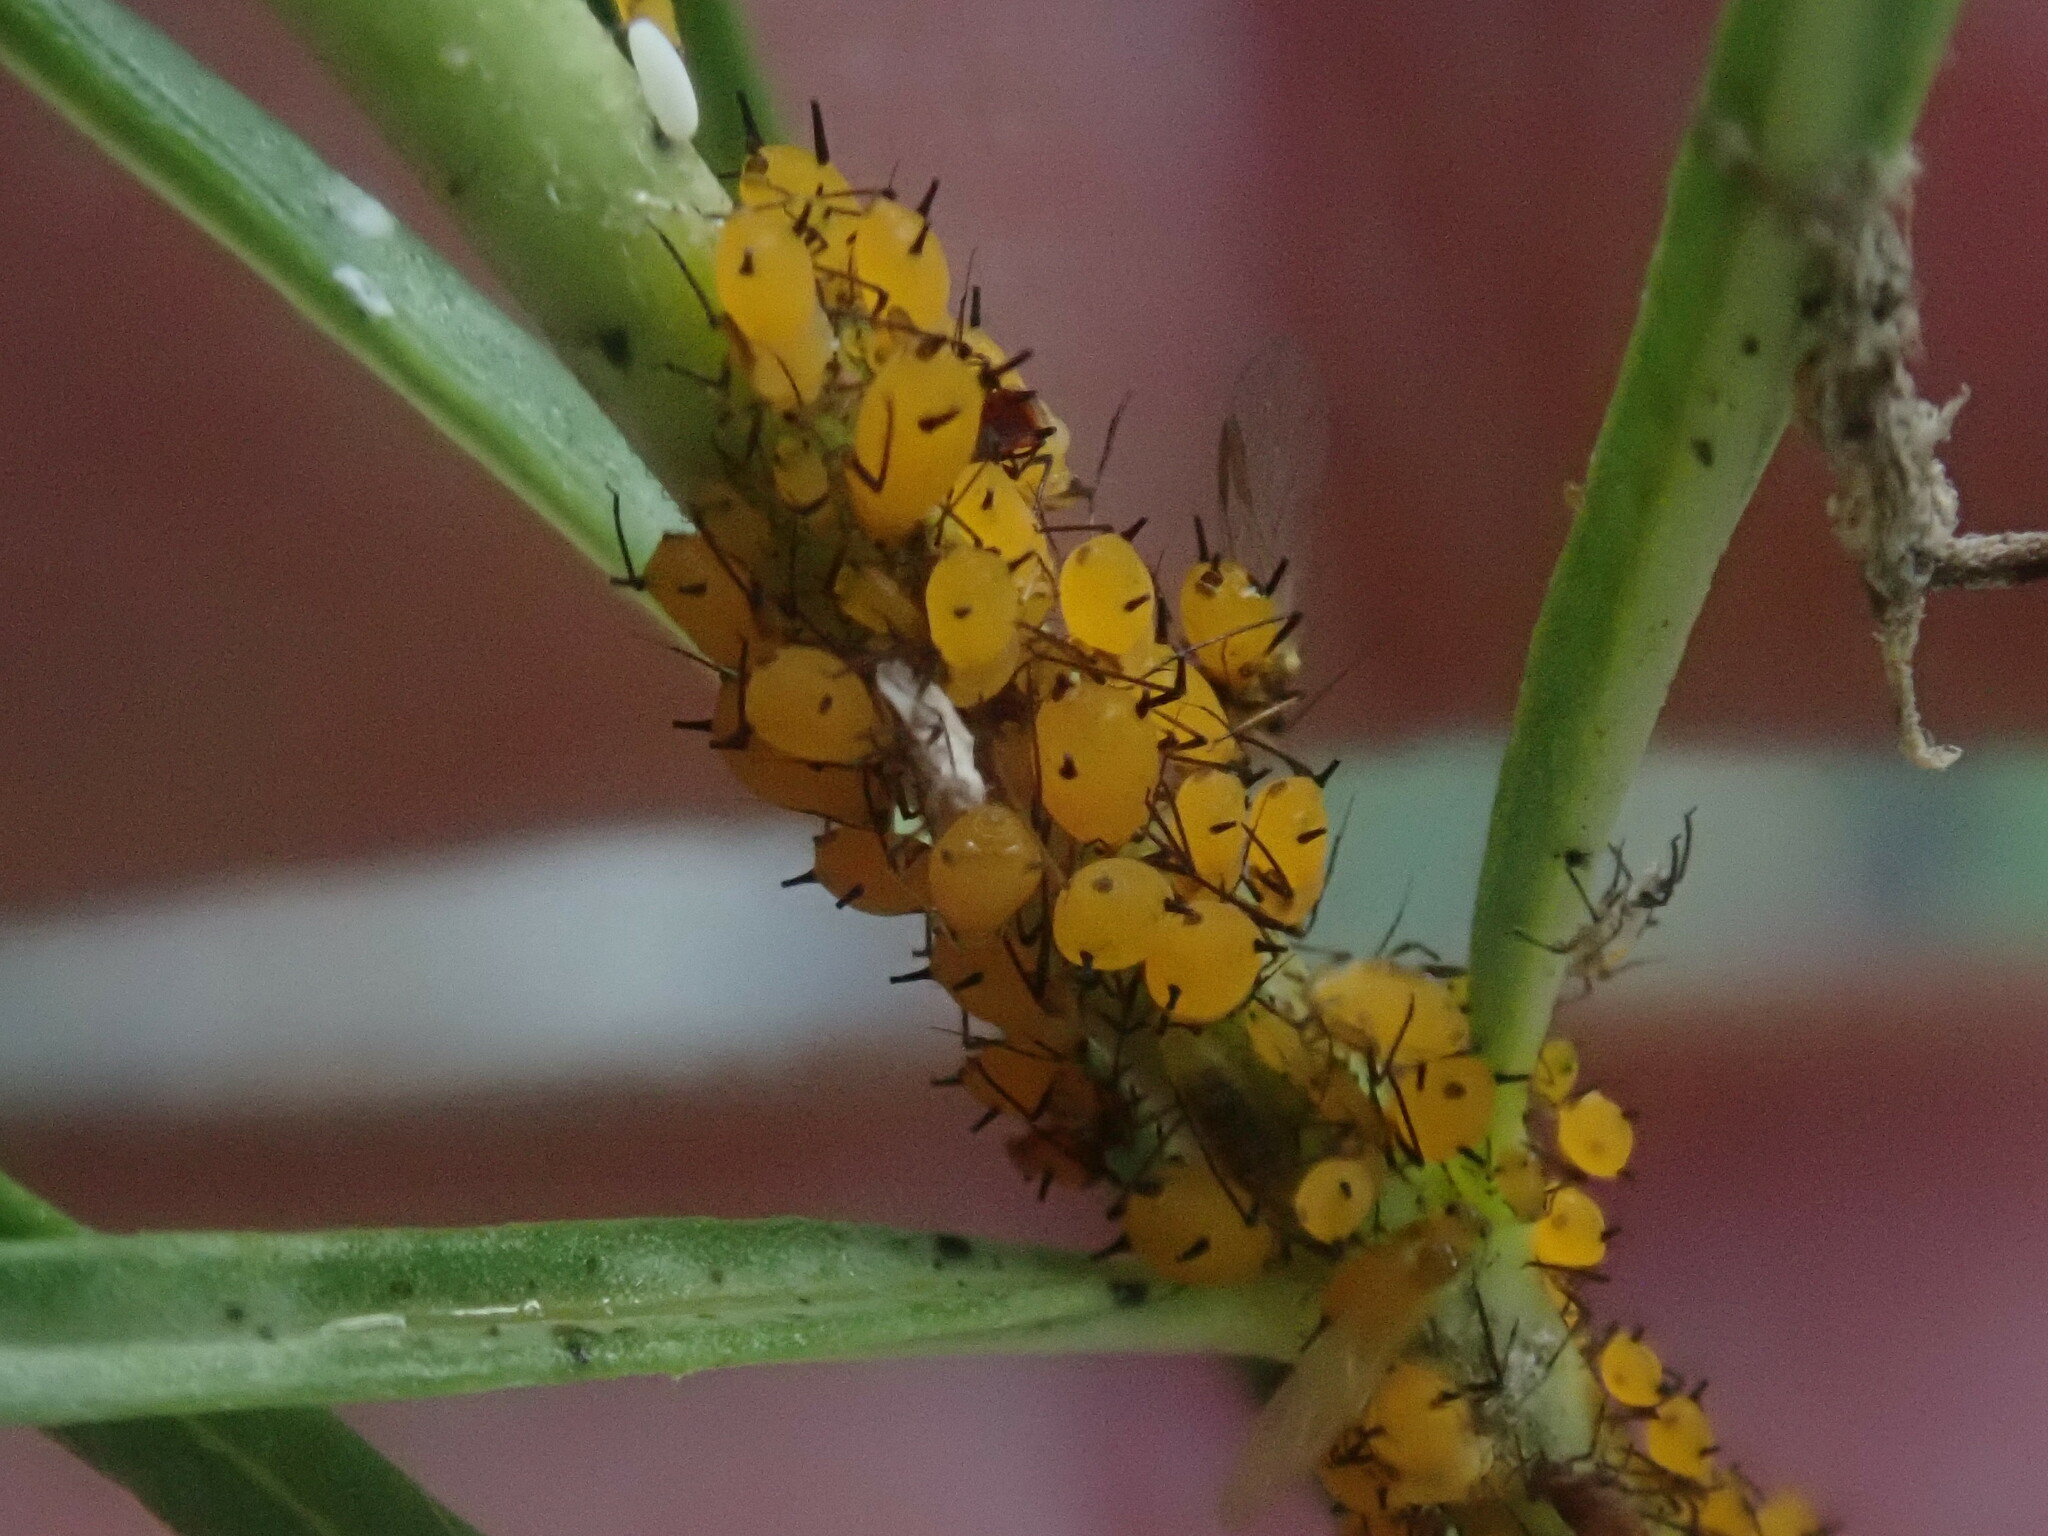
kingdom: Animalia
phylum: Arthropoda
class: Insecta
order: Hemiptera
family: Aphididae
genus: Aphis
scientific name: Aphis nerii
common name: Oleander aphid
